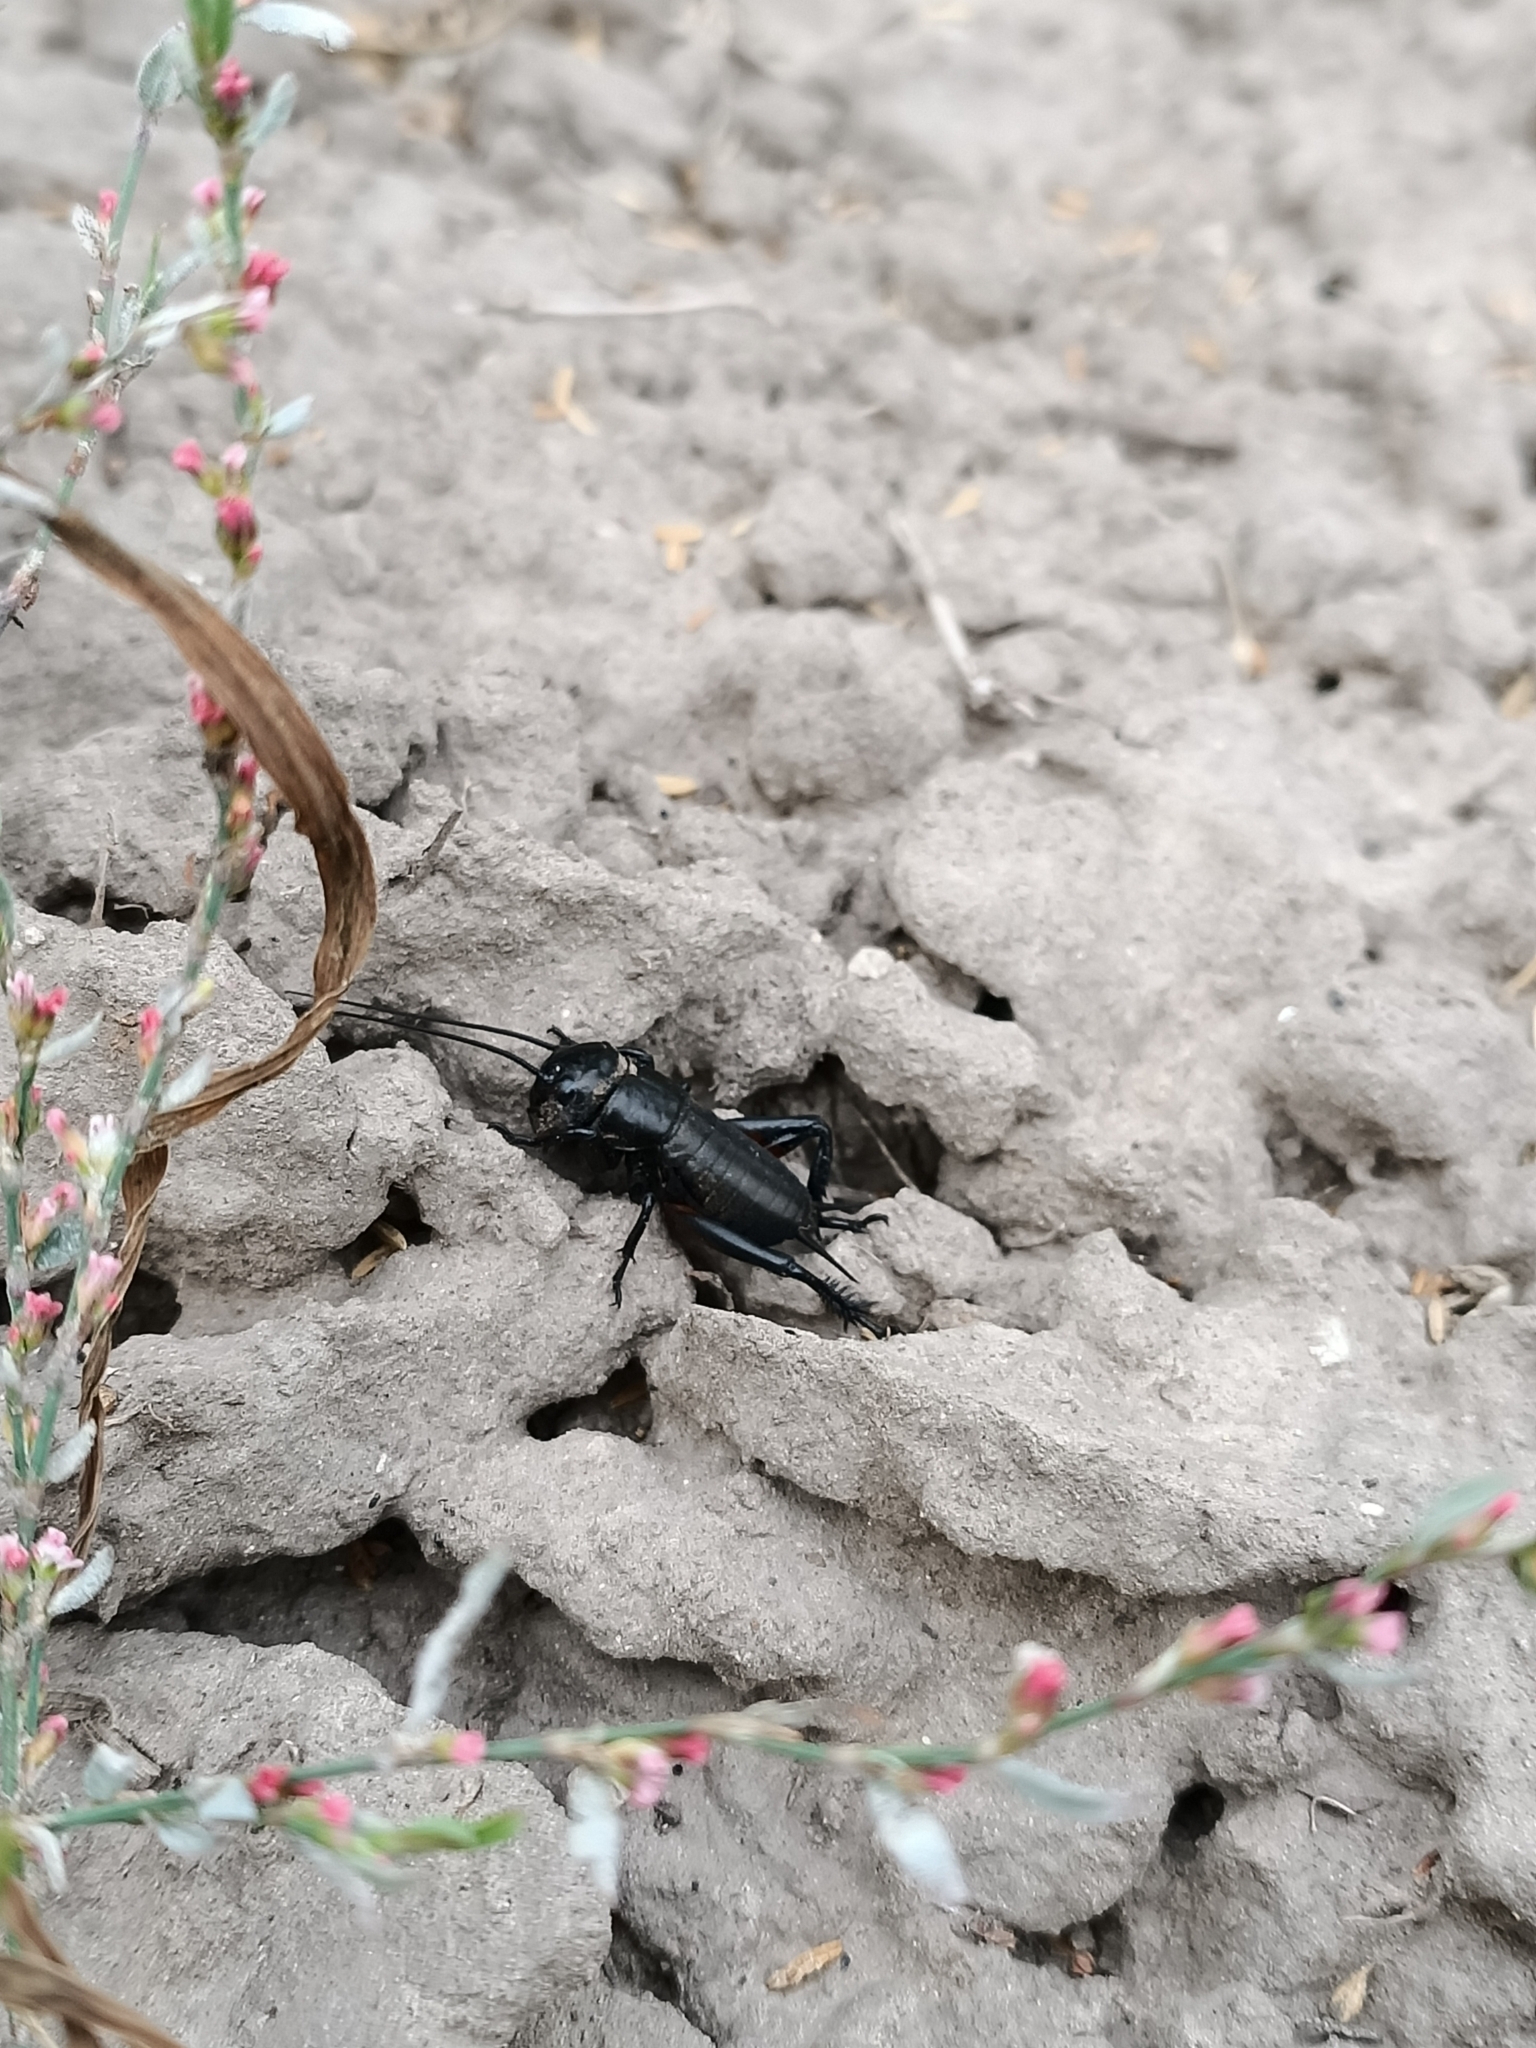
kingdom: Animalia
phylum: Arthropoda
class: Insecta
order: Orthoptera
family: Gryllidae
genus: Gryllus
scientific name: Gryllus campestris
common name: Field cricket
